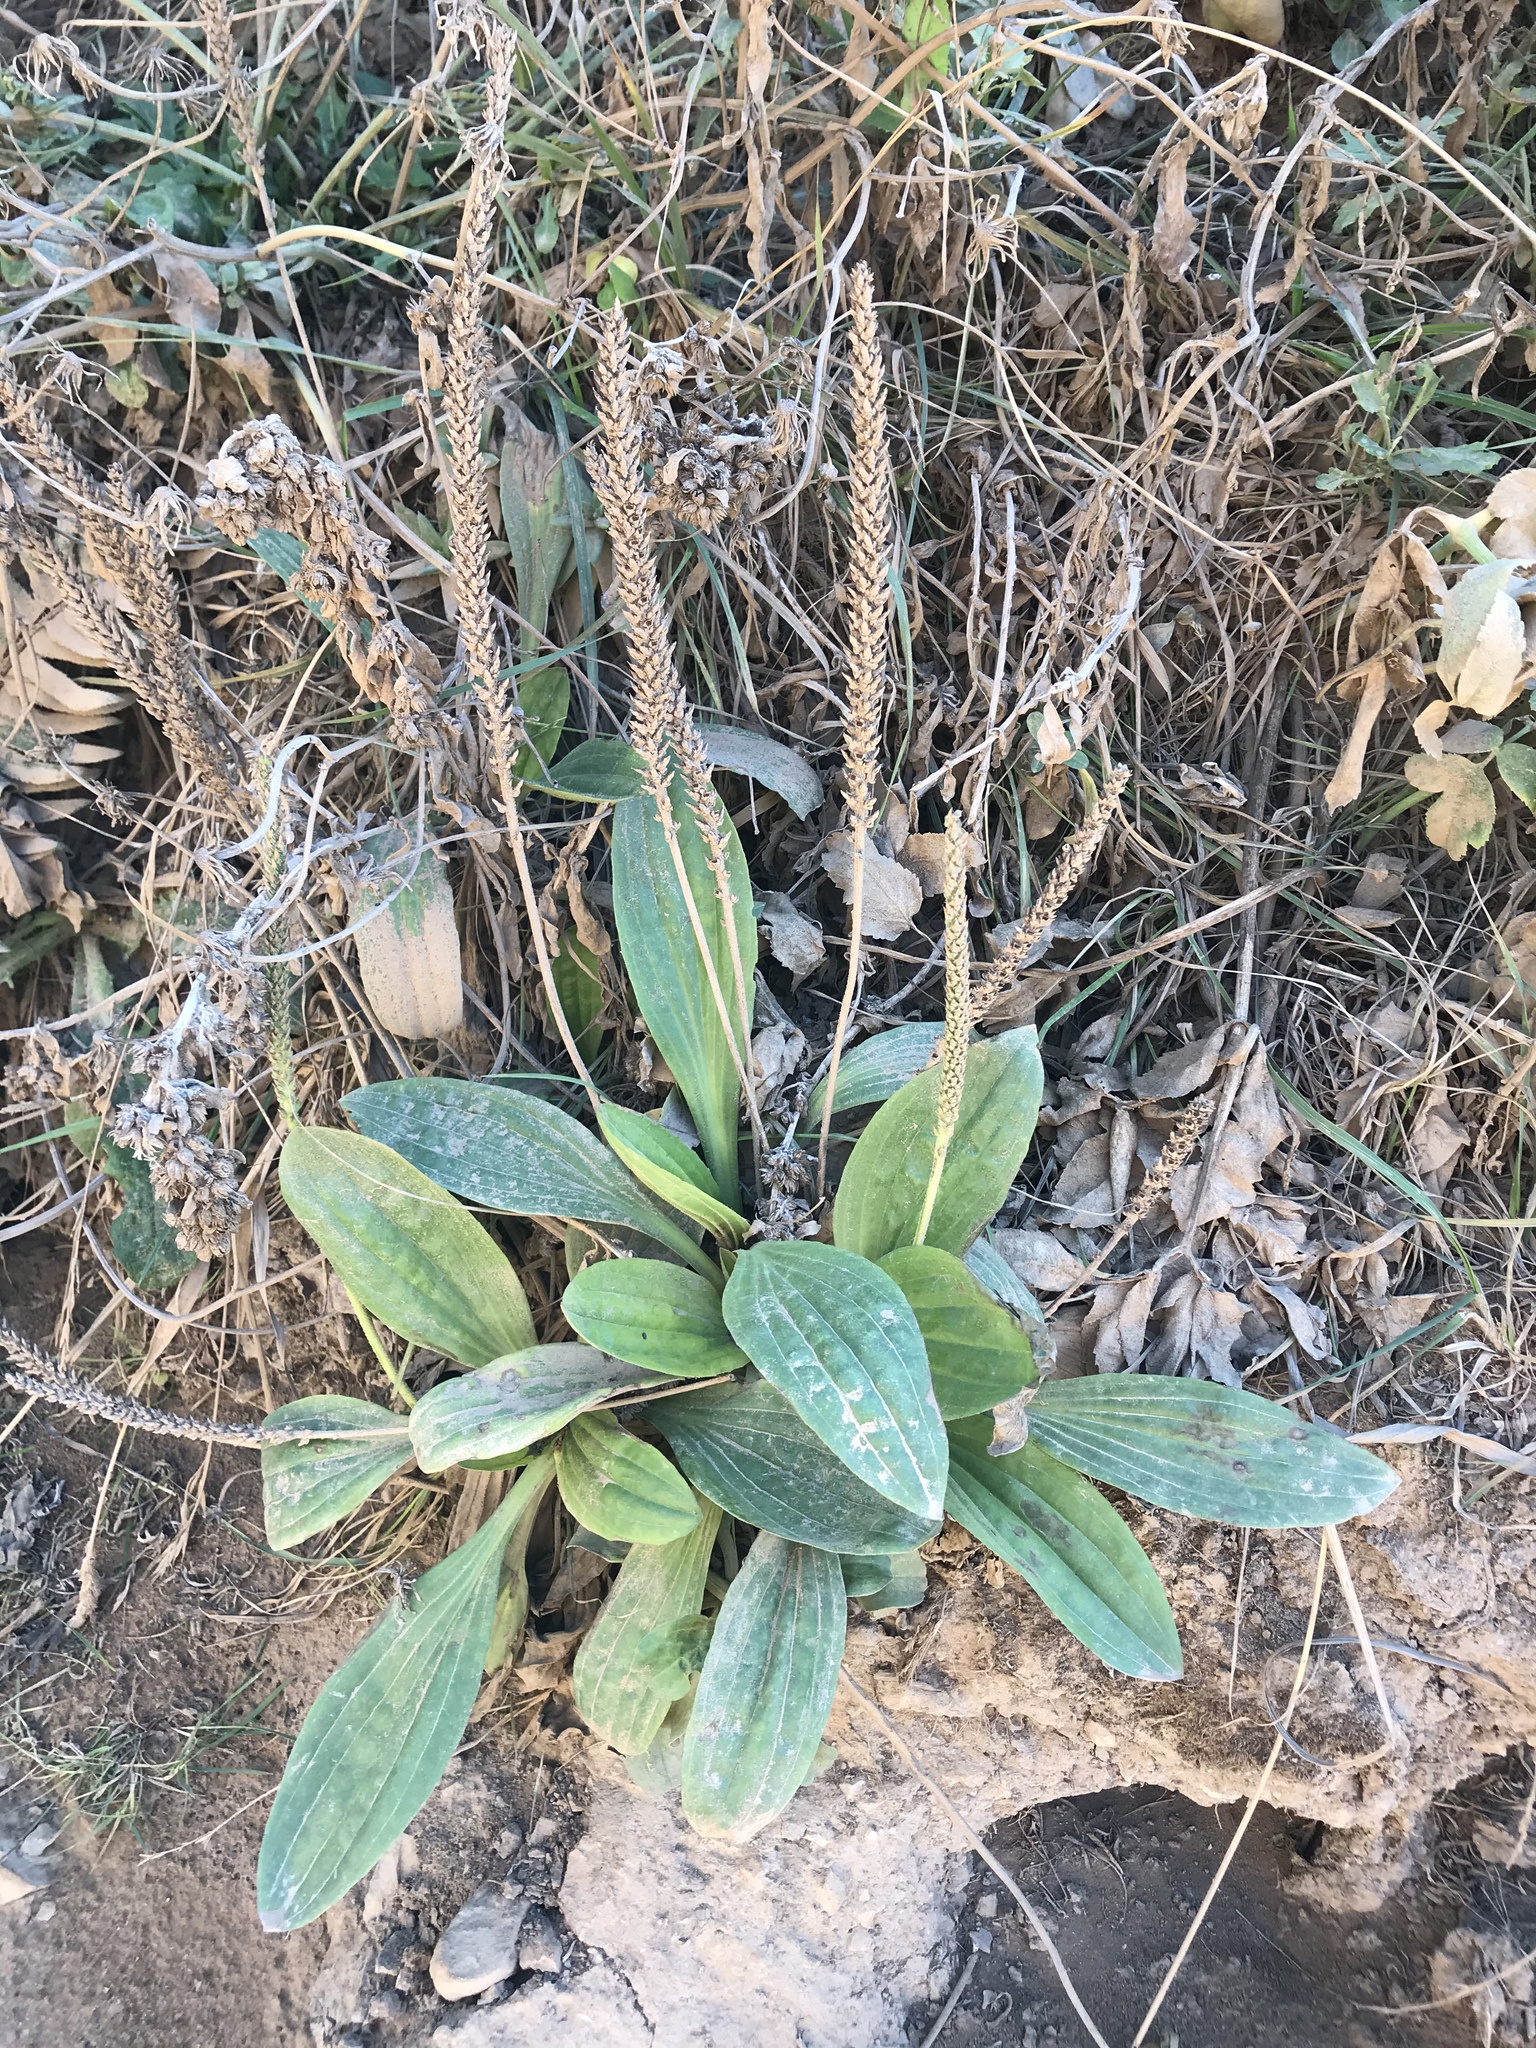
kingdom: Plantae
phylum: Tracheophyta
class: Magnoliopsida
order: Lamiales
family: Plantaginaceae
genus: Plantago
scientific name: Plantago subnuda
